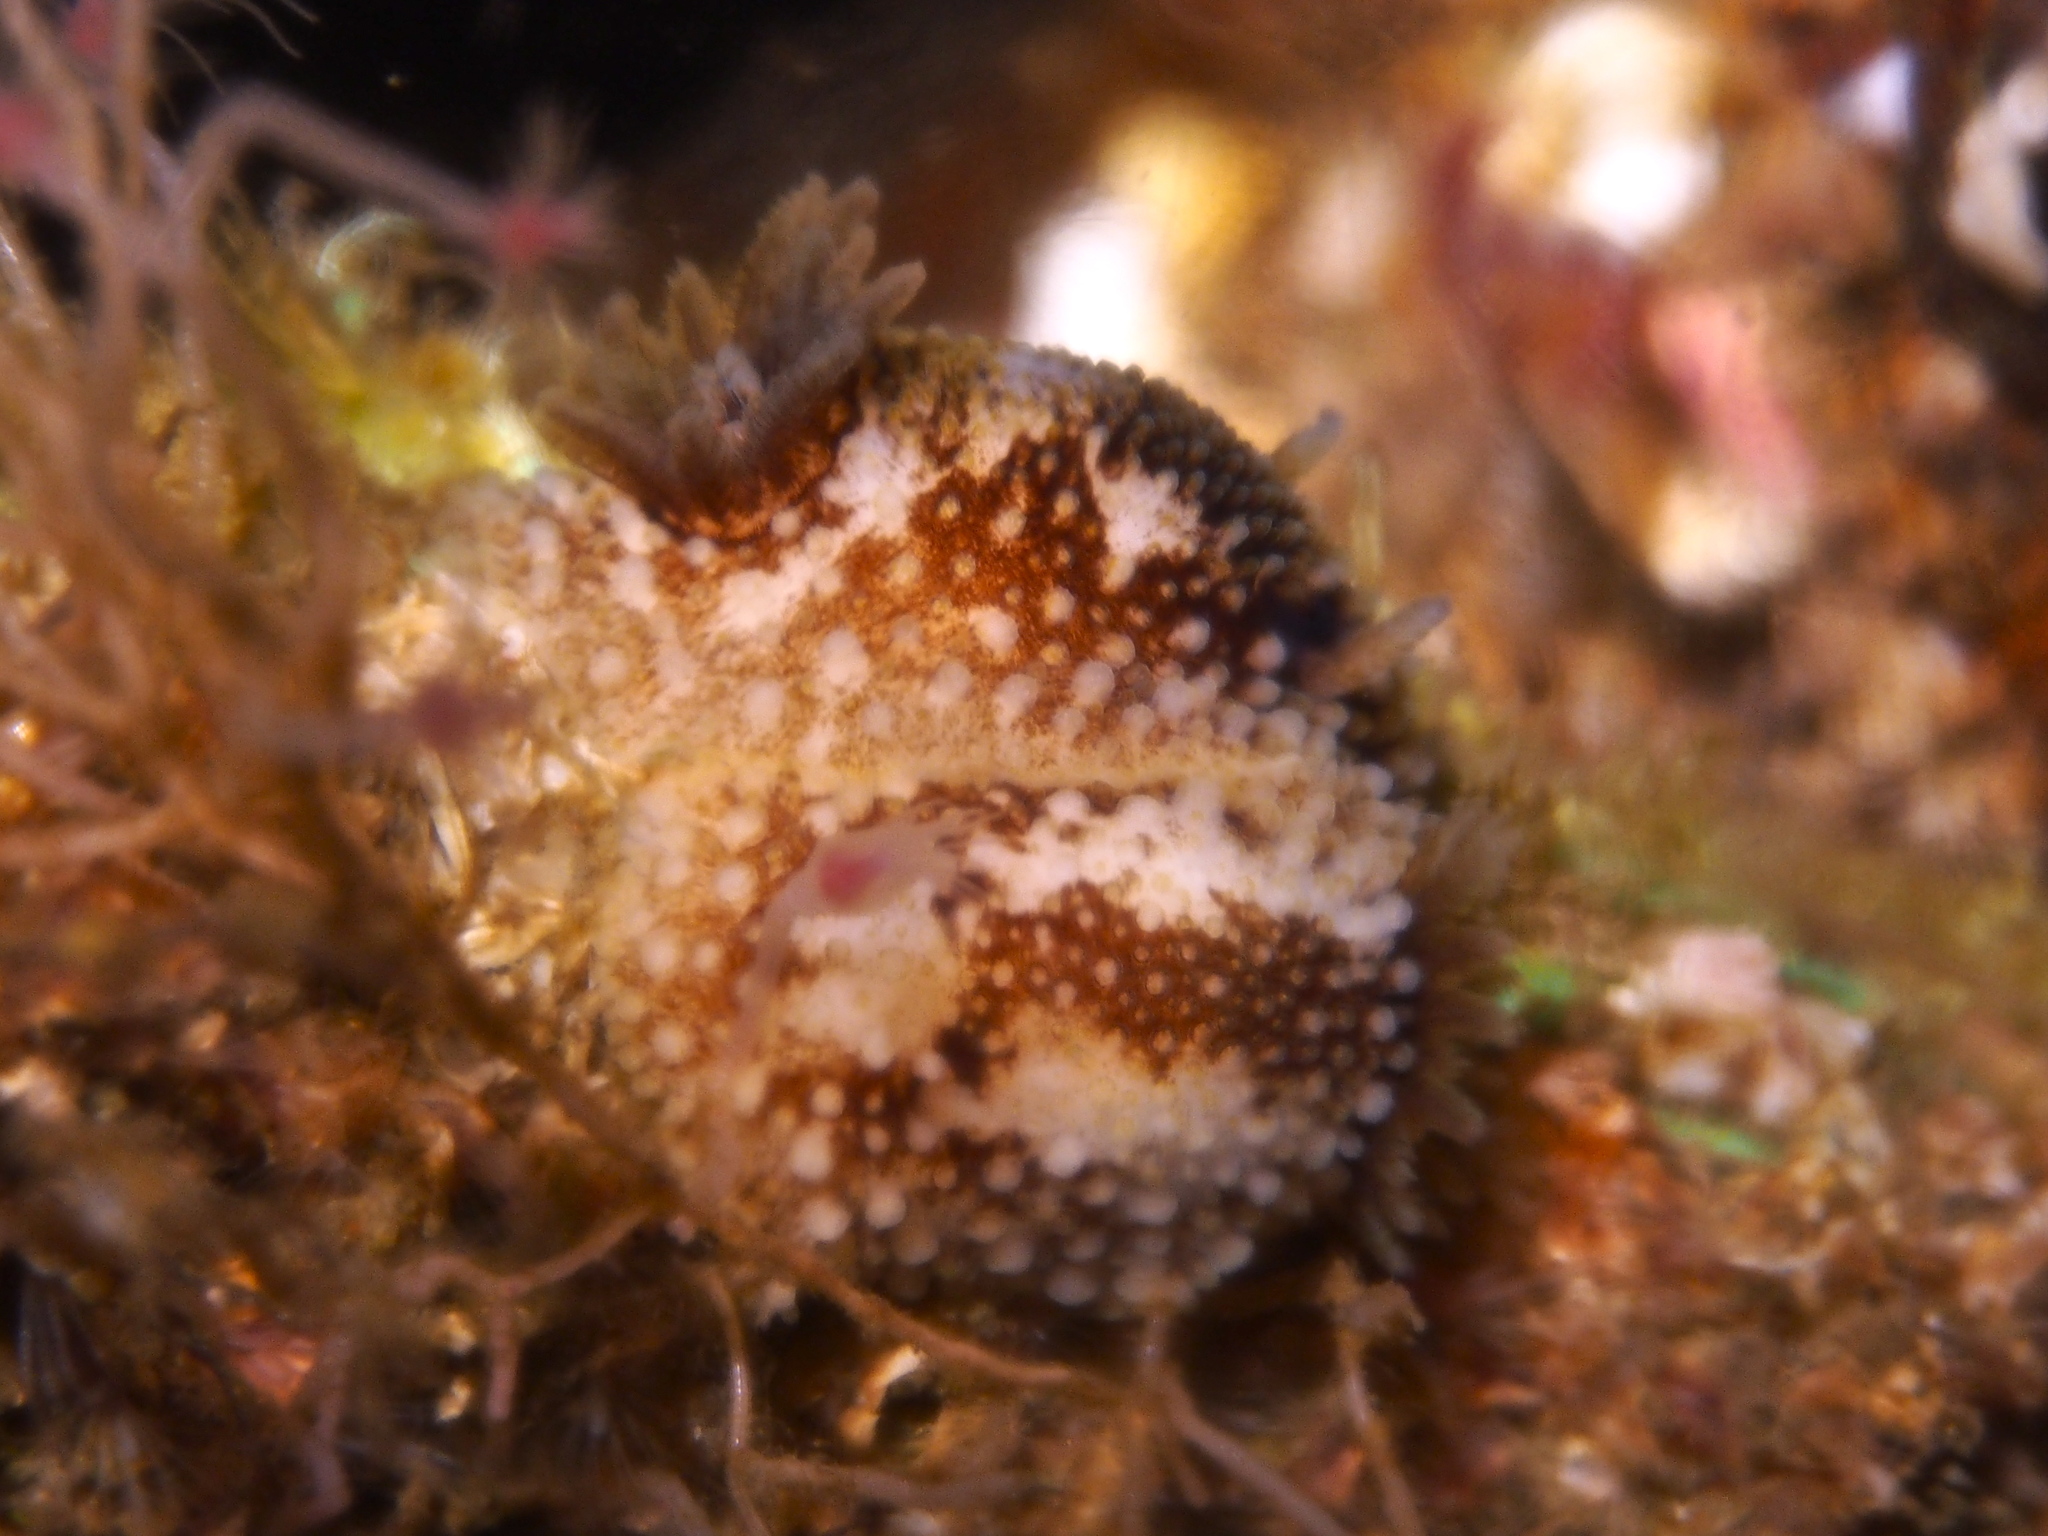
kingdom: Animalia
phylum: Mollusca
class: Gastropoda
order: Nudibranchia
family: Onchidorididae
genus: Onchidoris
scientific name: Onchidoris bilamellata
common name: Barnacle-eating onchidoris
